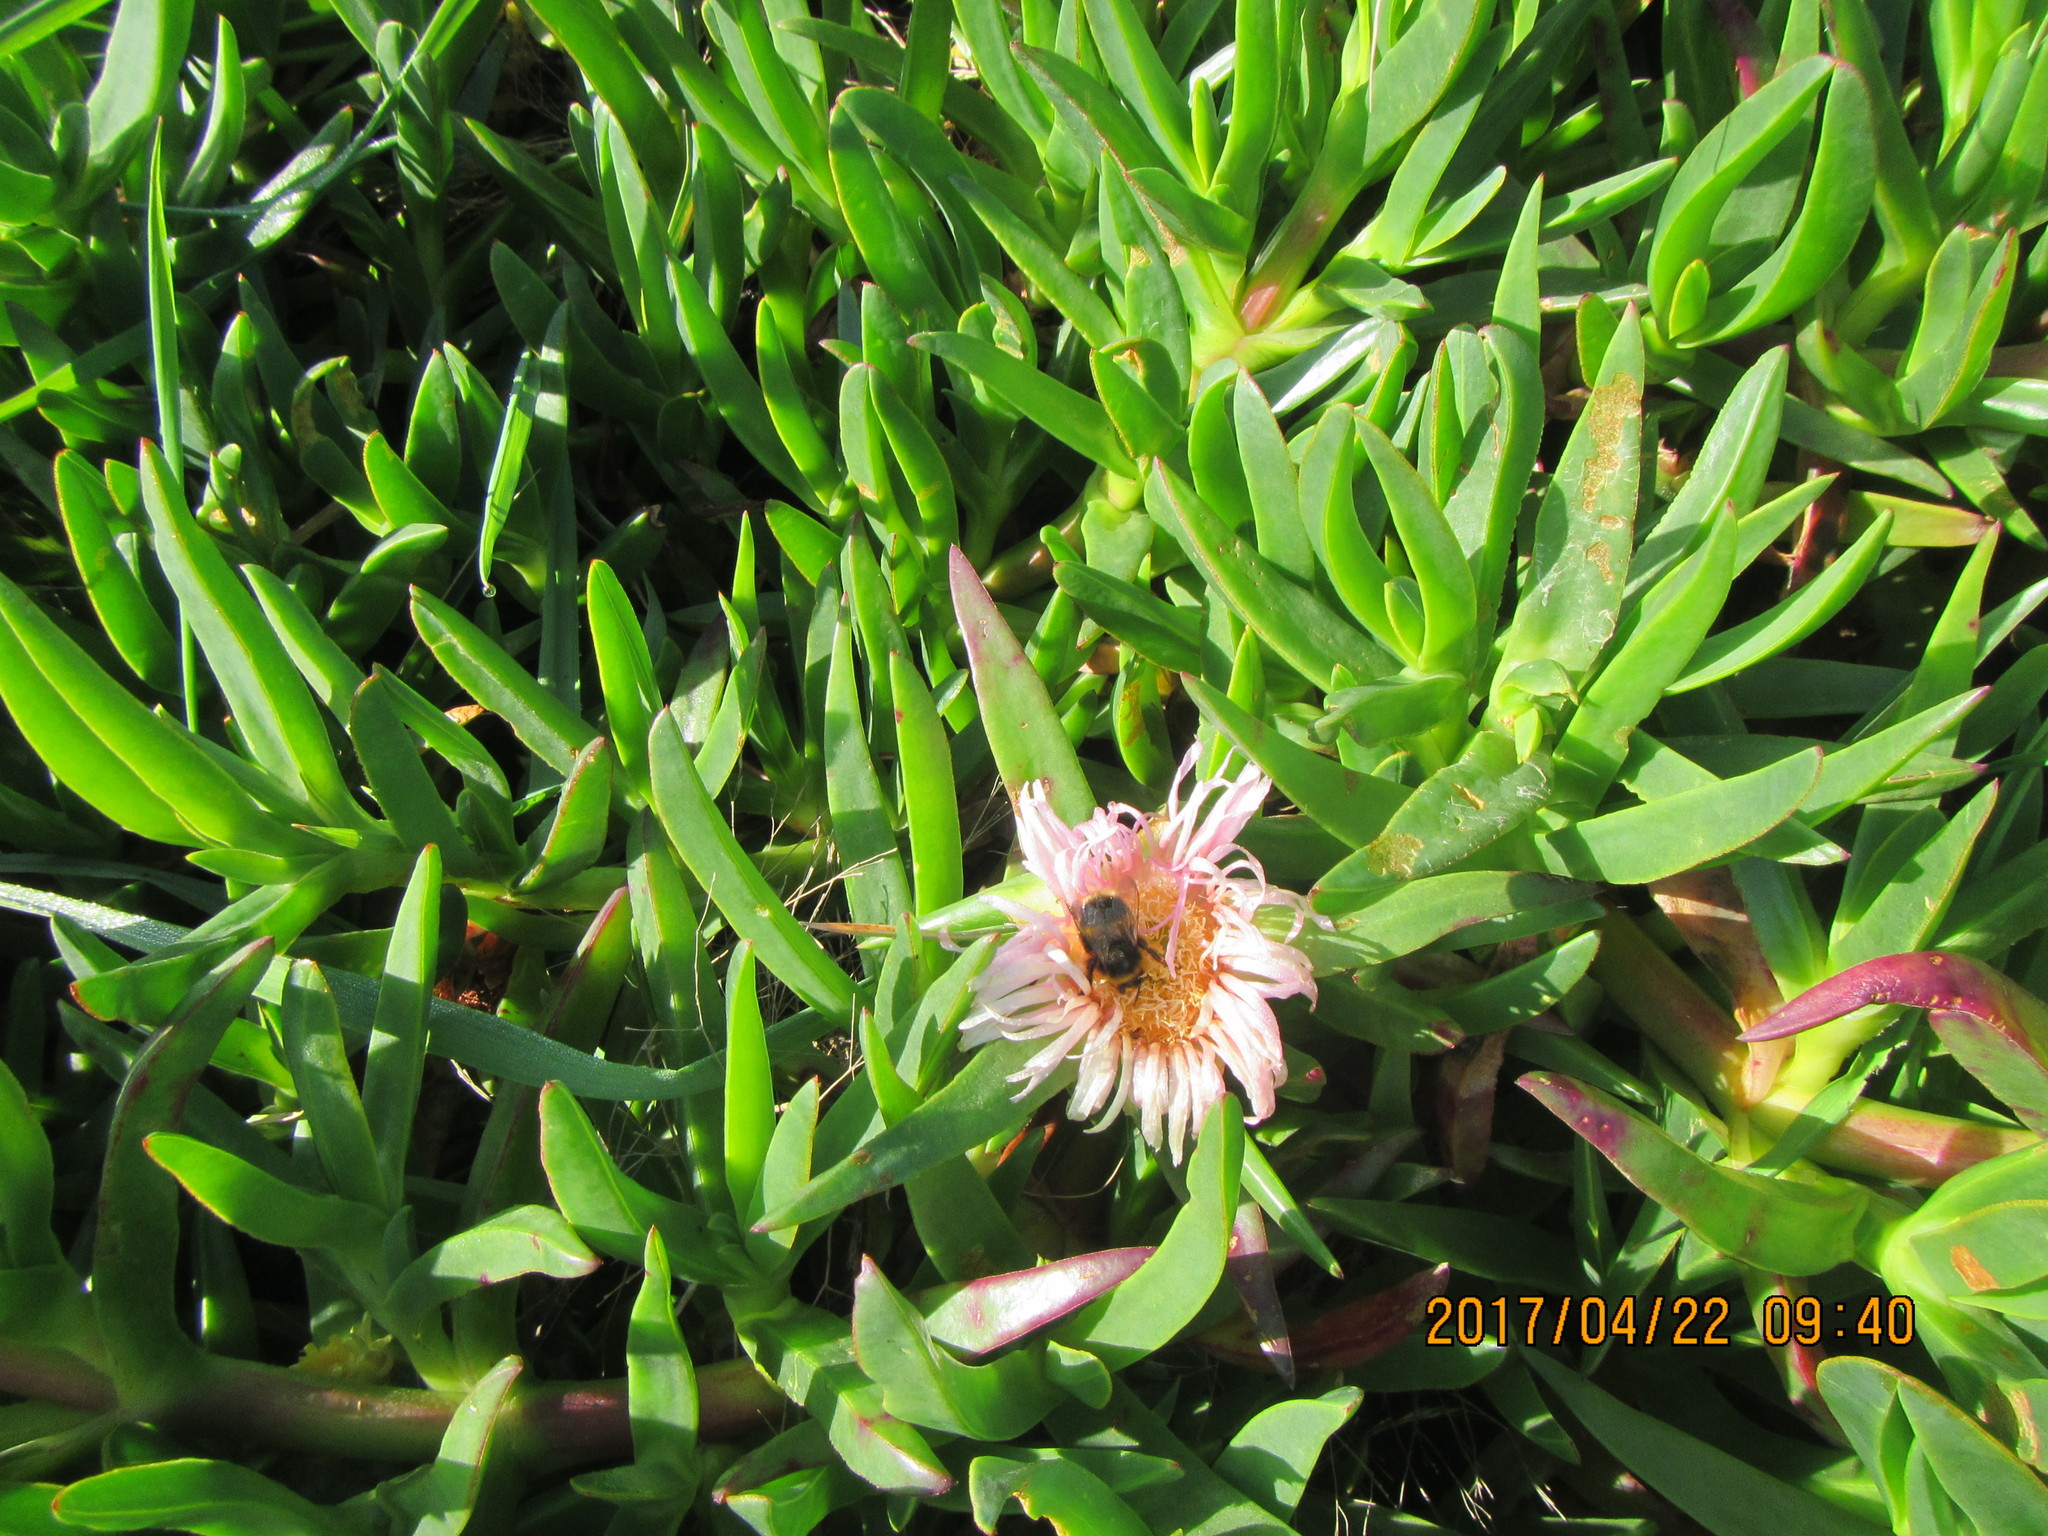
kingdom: Animalia
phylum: Arthropoda
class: Insecta
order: Hymenoptera
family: Apidae
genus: Bombus
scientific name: Bombus terrestris
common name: Buff-tailed bumblebee
